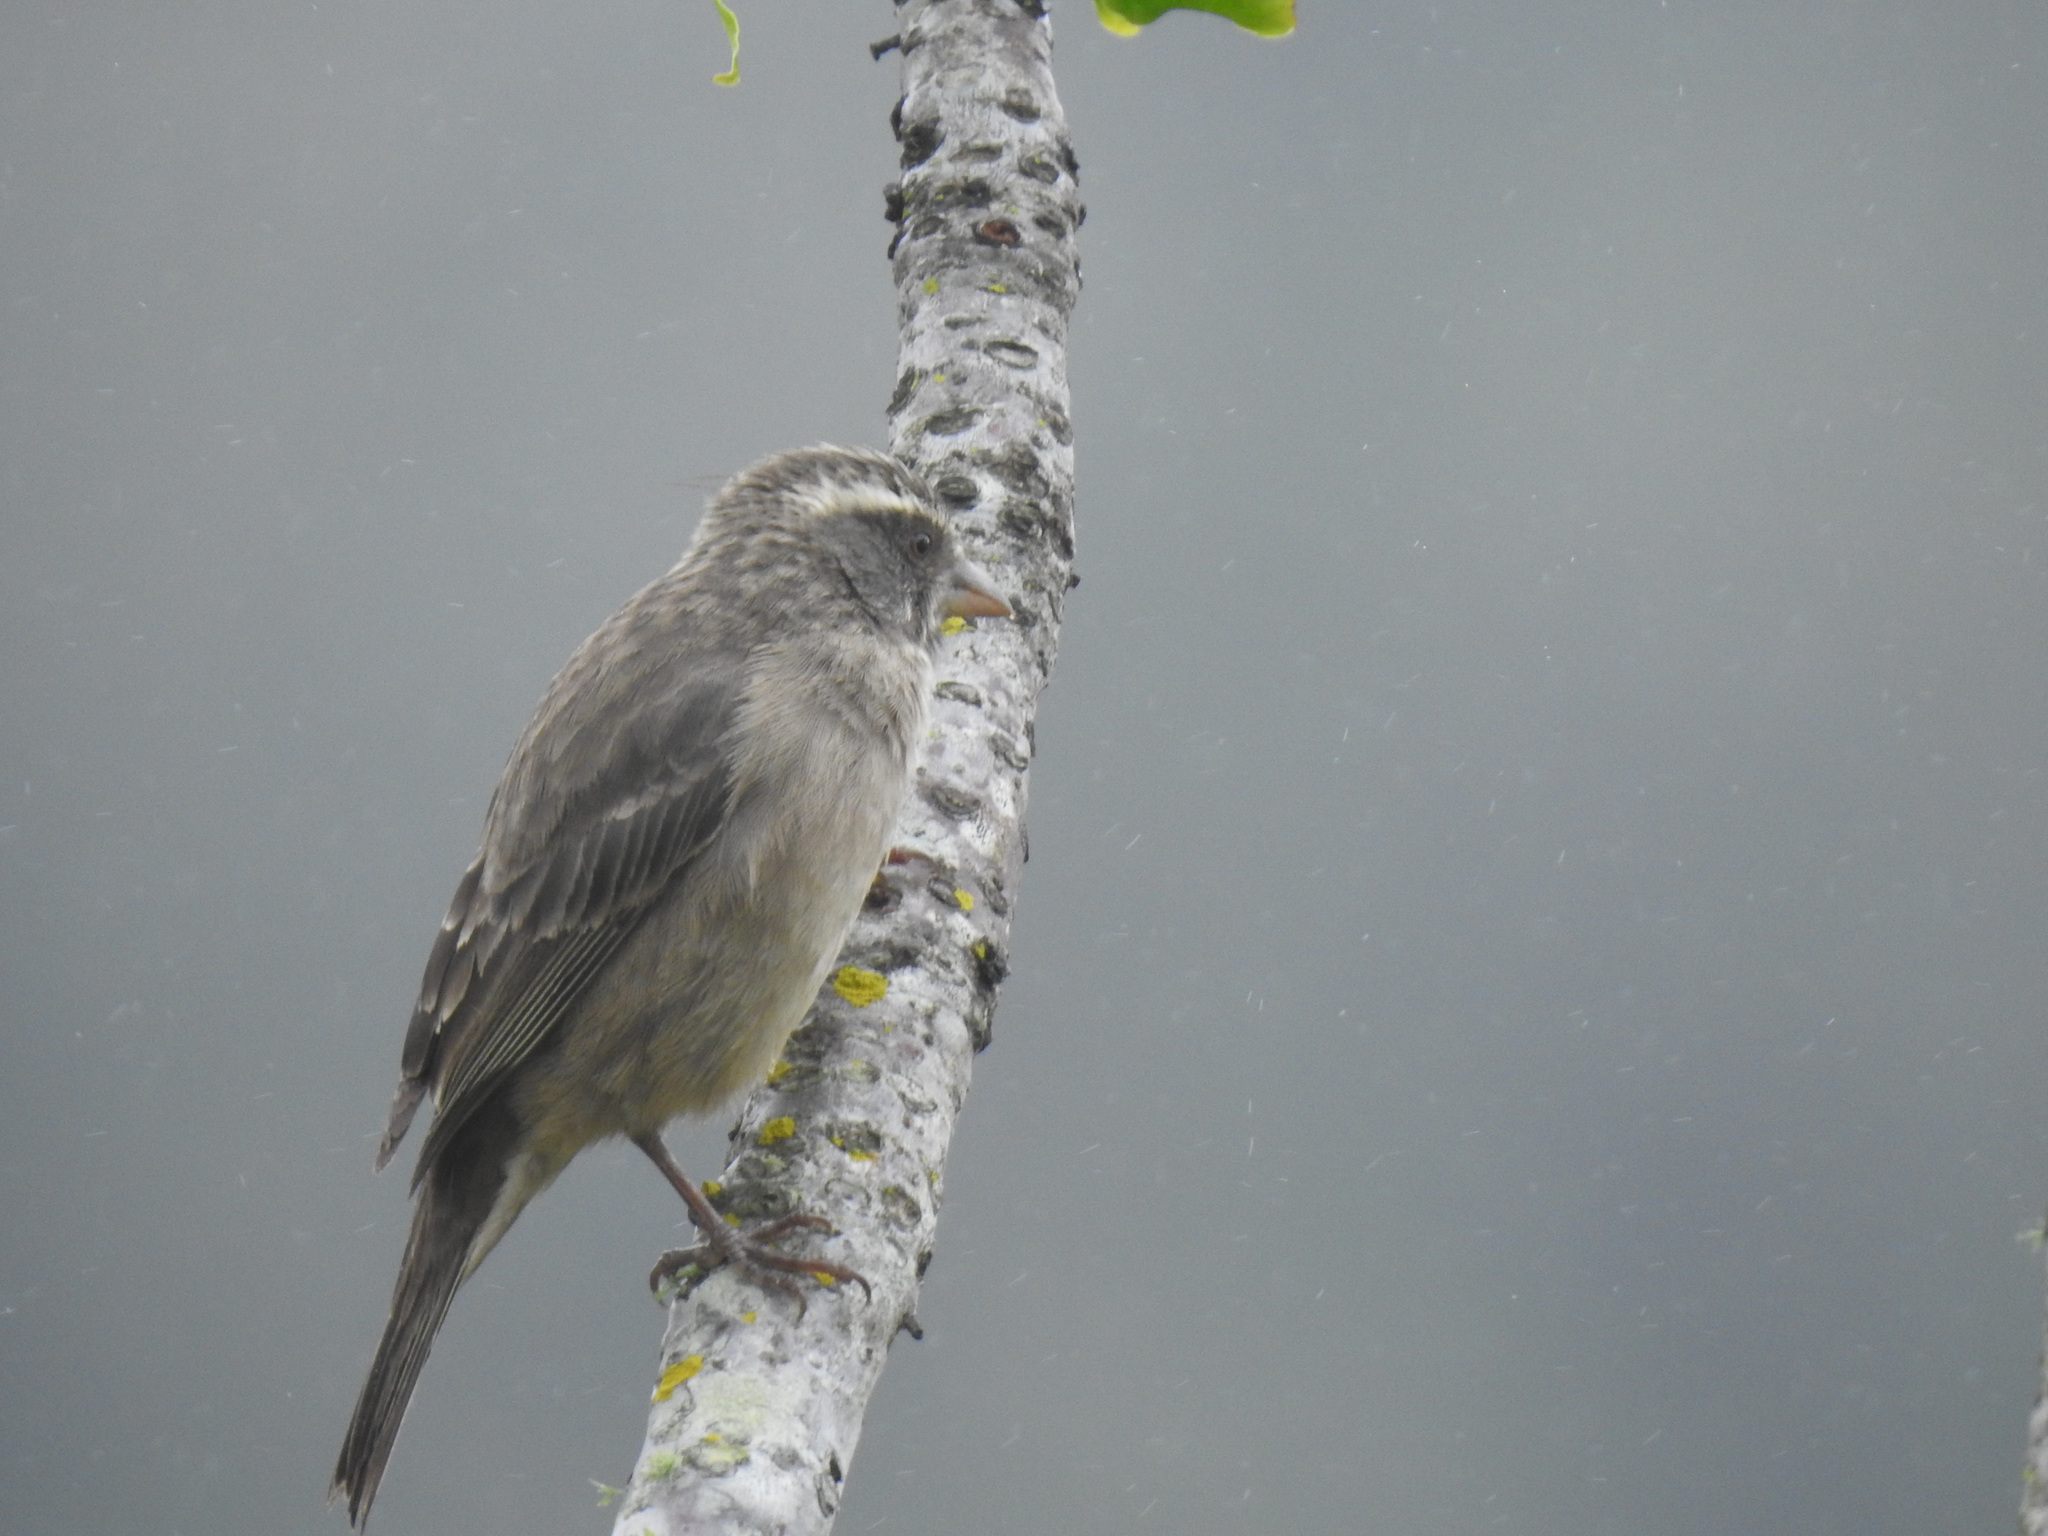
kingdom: Animalia
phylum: Chordata
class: Aves
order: Passeriformes
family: Fringillidae
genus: Crithagra
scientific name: Crithagra gularis
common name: Streaky-headed seedeater
